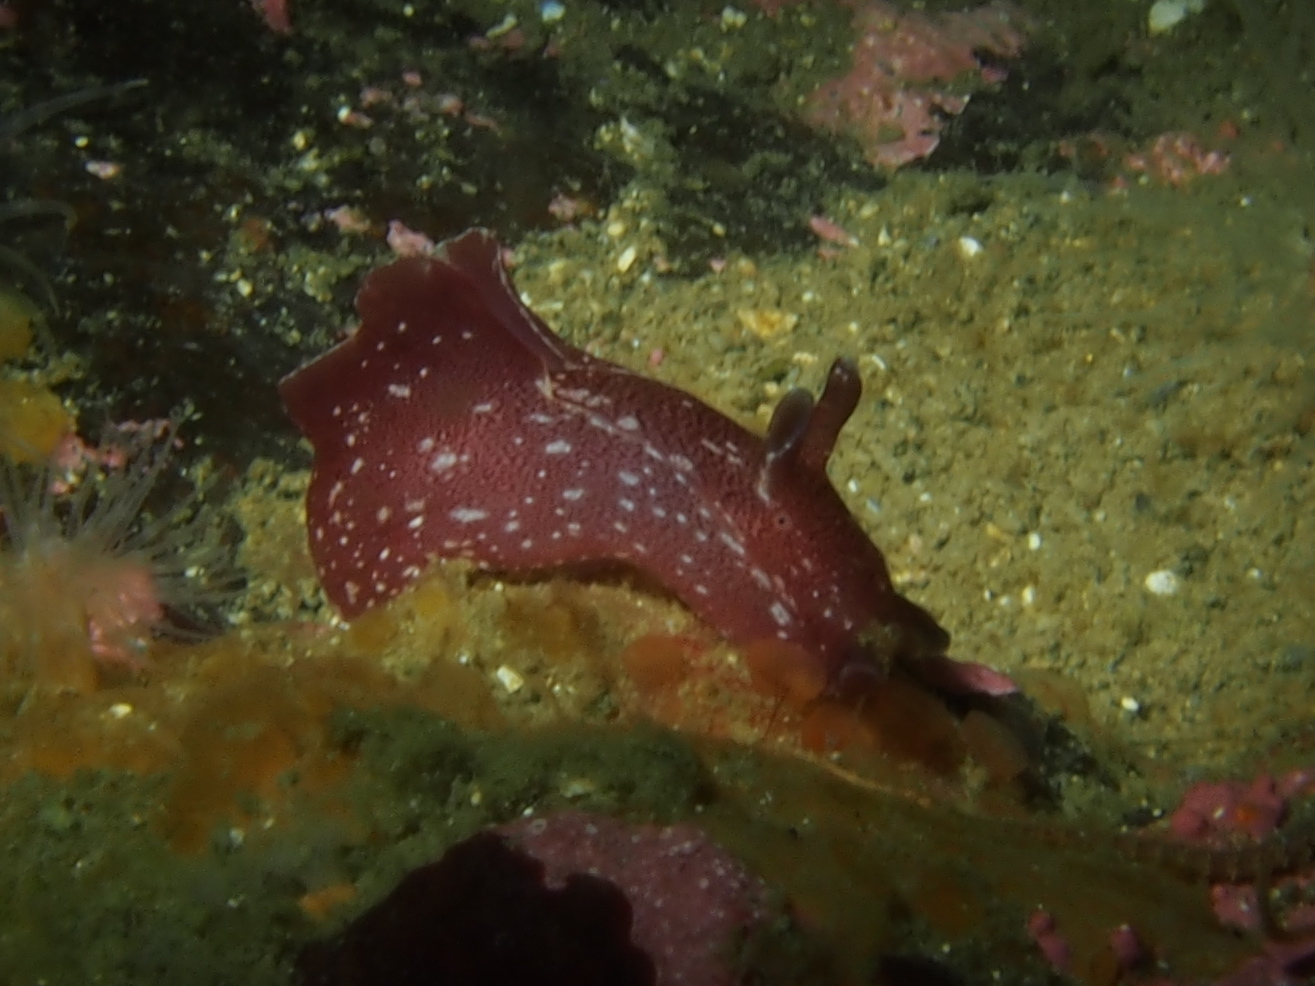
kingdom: Animalia
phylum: Mollusca
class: Gastropoda
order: Aplysiida
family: Aplysiidae
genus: Aplysia
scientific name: Aplysia punctata
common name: Common sea hare
